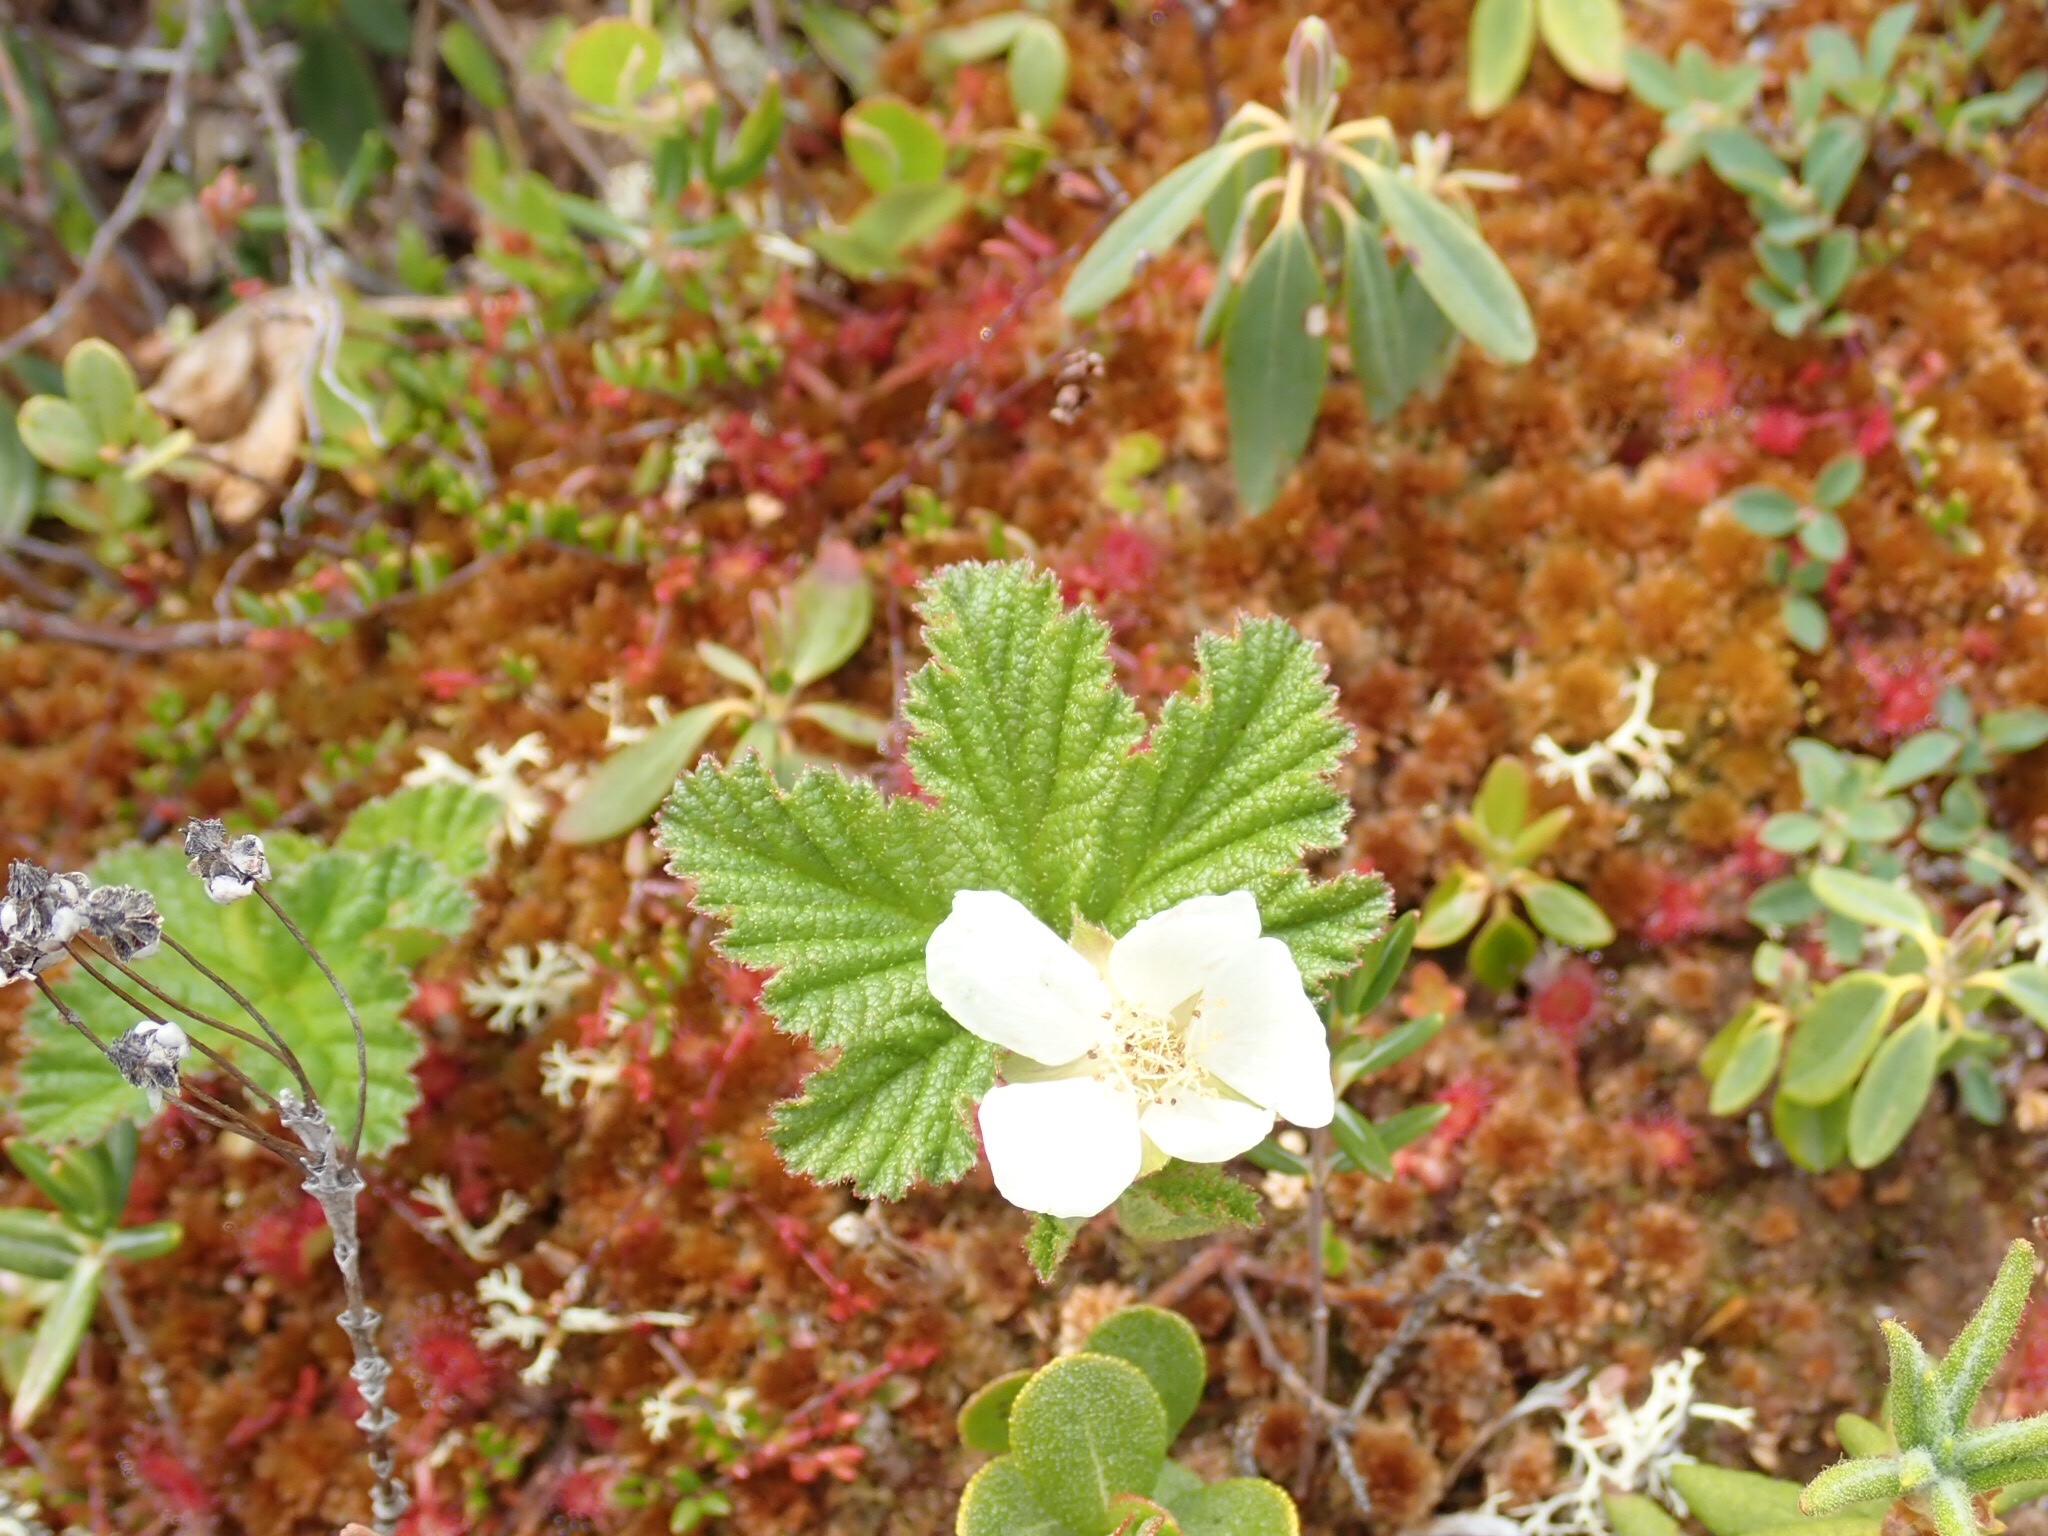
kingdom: Plantae
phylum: Tracheophyta
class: Magnoliopsida
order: Rosales
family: Rosaceae
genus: Rubus
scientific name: Rubus chamaemorus
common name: Cloudberry
